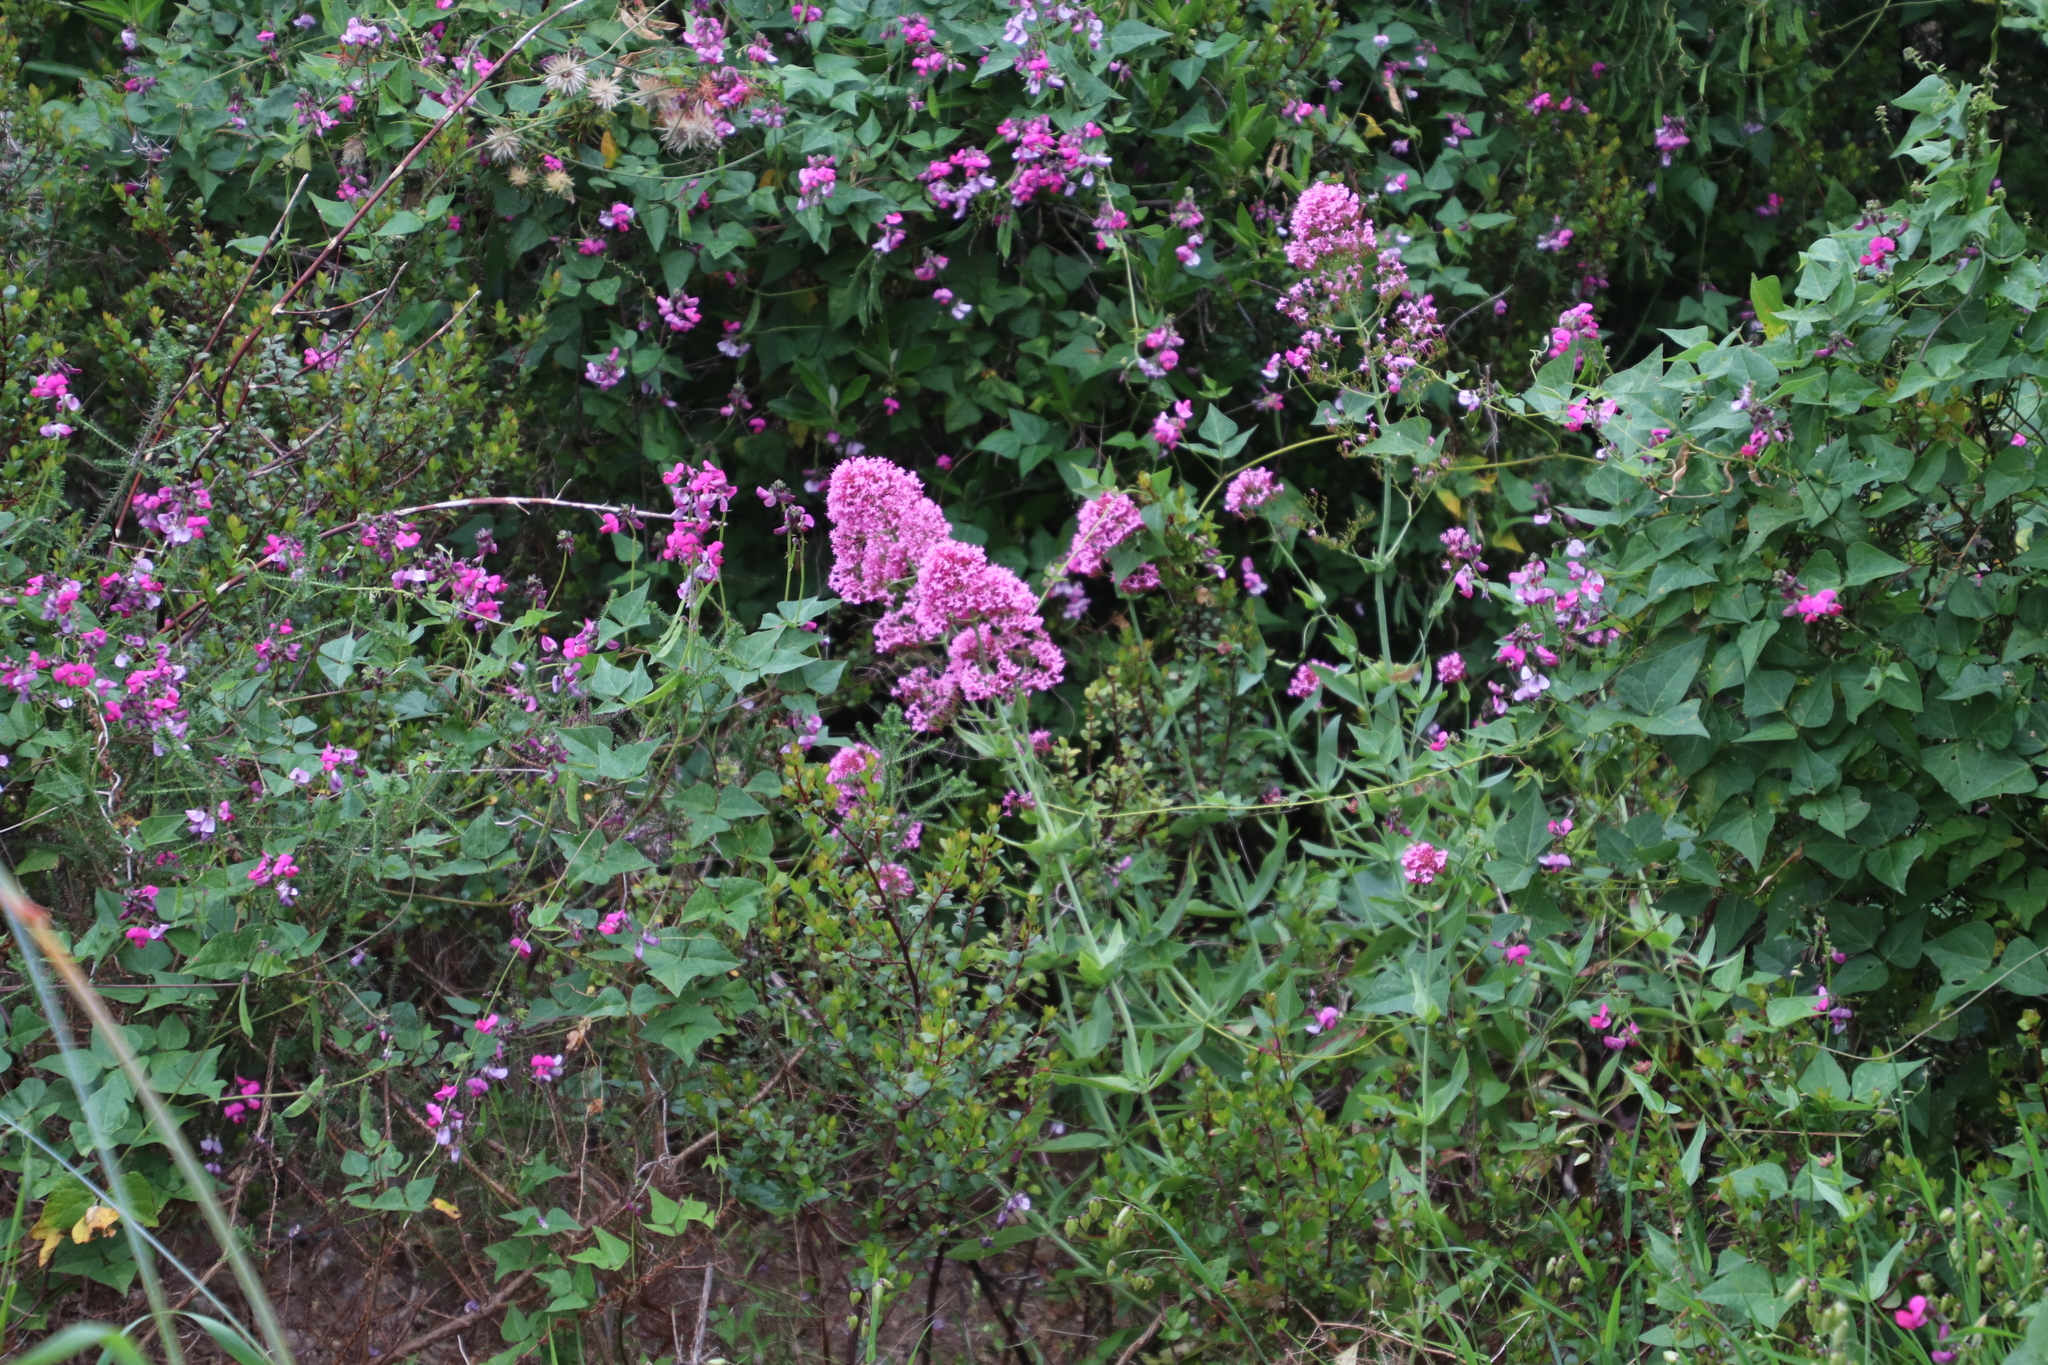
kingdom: Plantae
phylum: Tracheophyta
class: Magnoliopsida
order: Dipsacales
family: Caprifoliaceae
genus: Centranthus
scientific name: Centranthus ruber
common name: Red valerian
